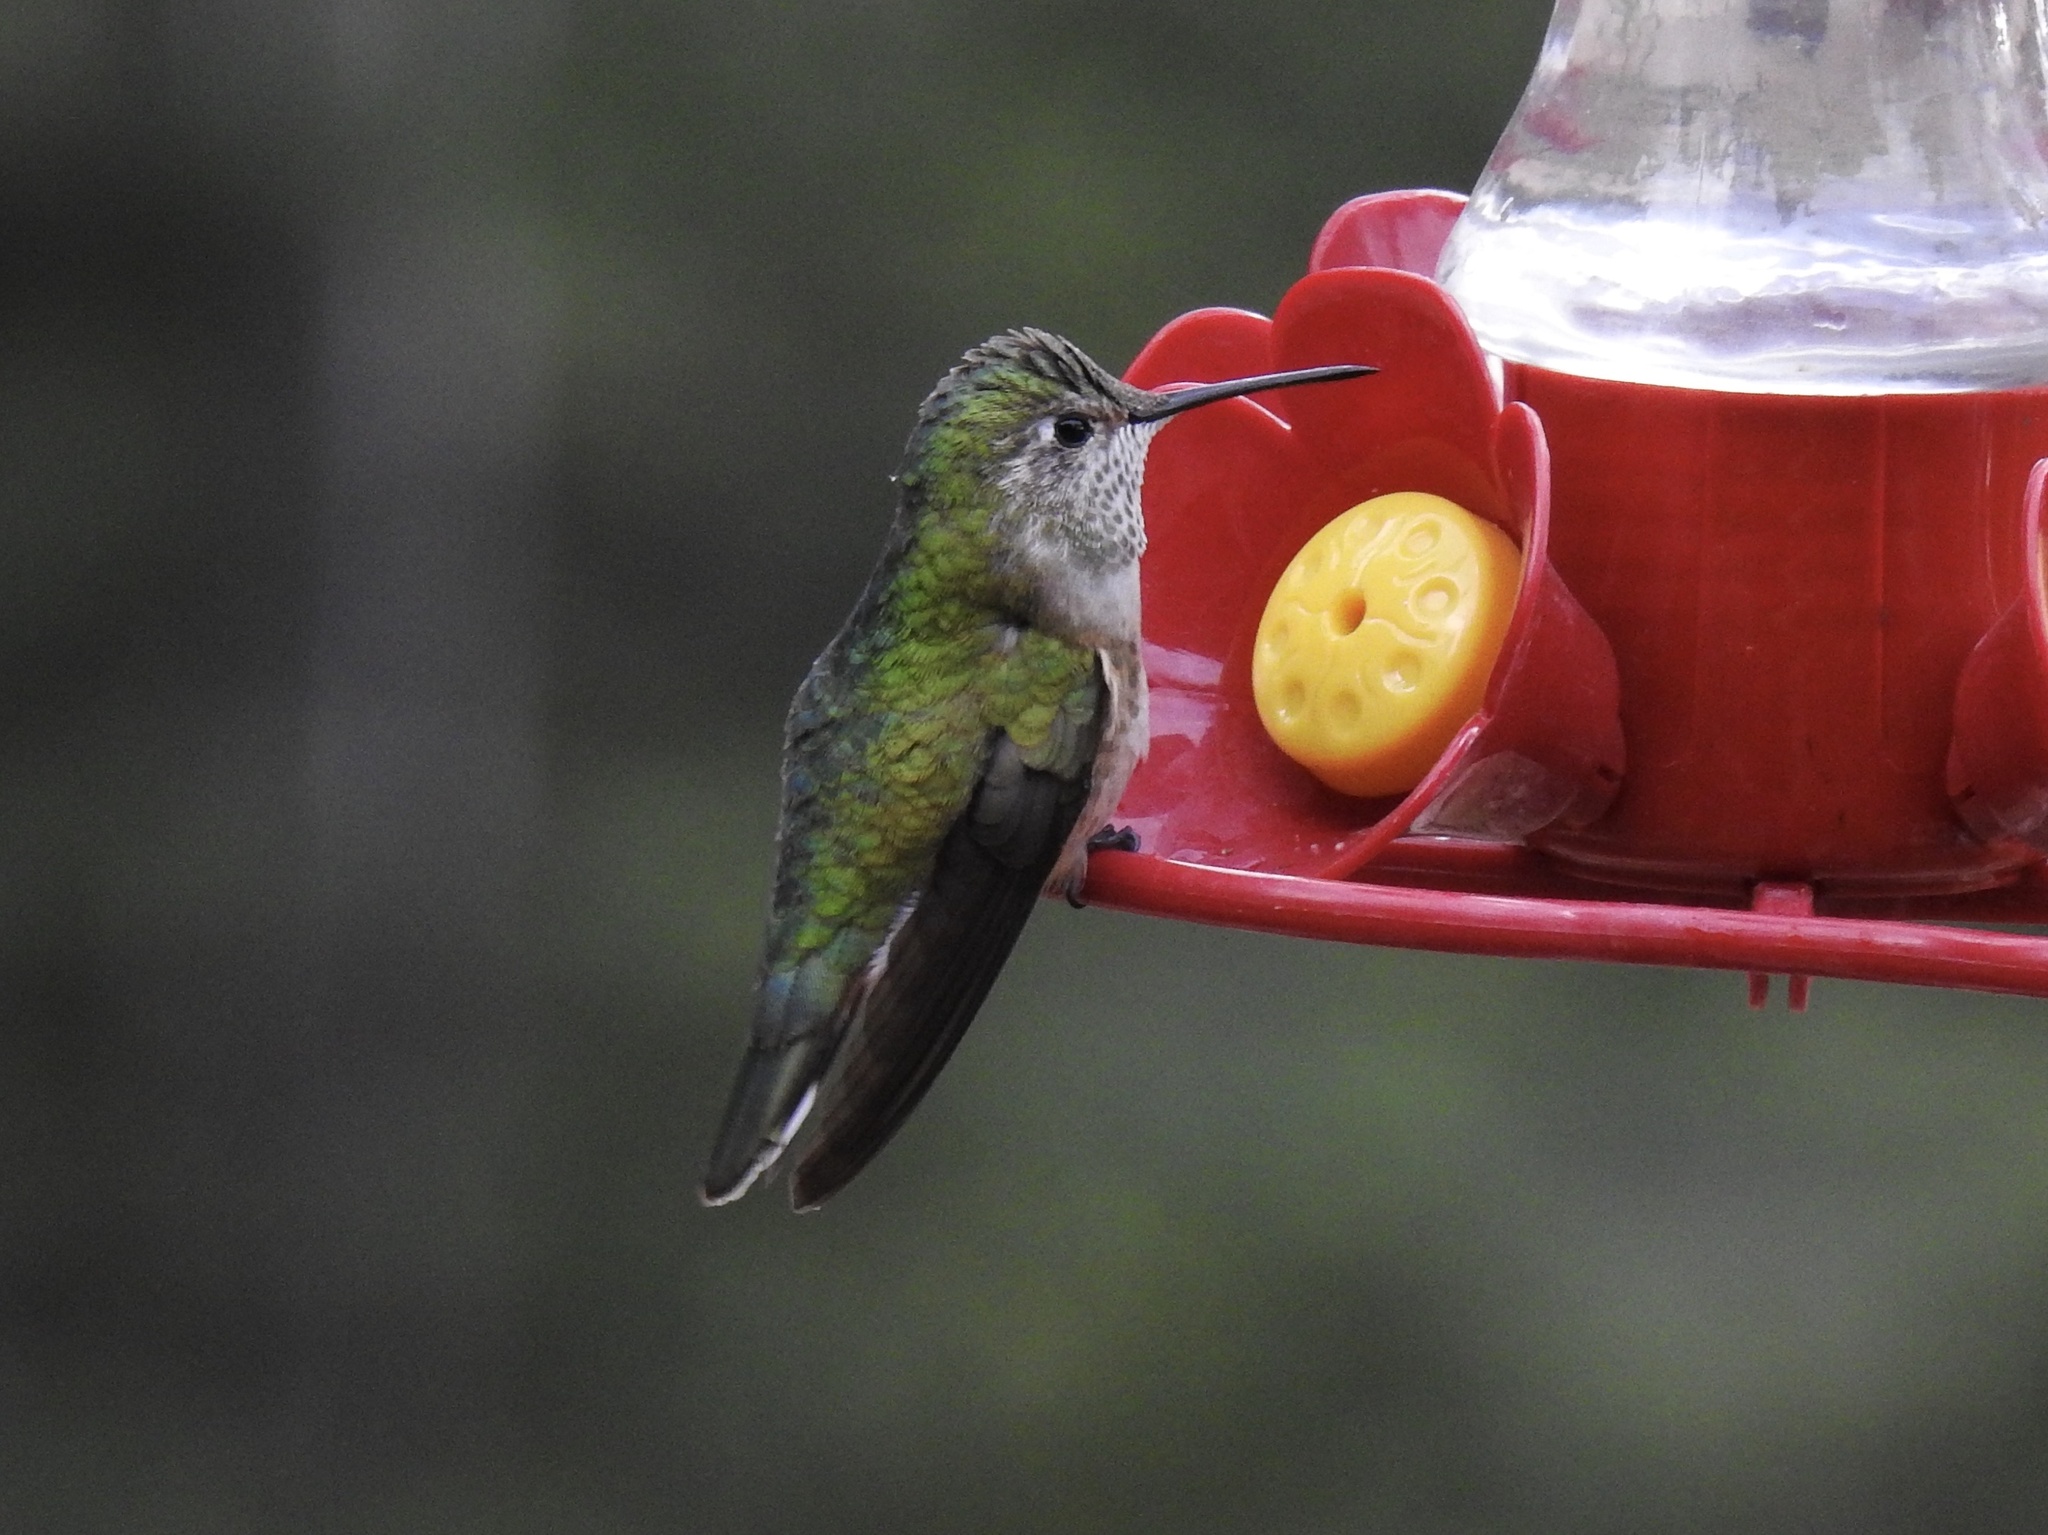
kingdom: Animalia
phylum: Chordata
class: Aves
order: Apodiformes
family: Trochilidae
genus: Selasphorus
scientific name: Selasphorus platycercus
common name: Broad-tailed hummingbird
